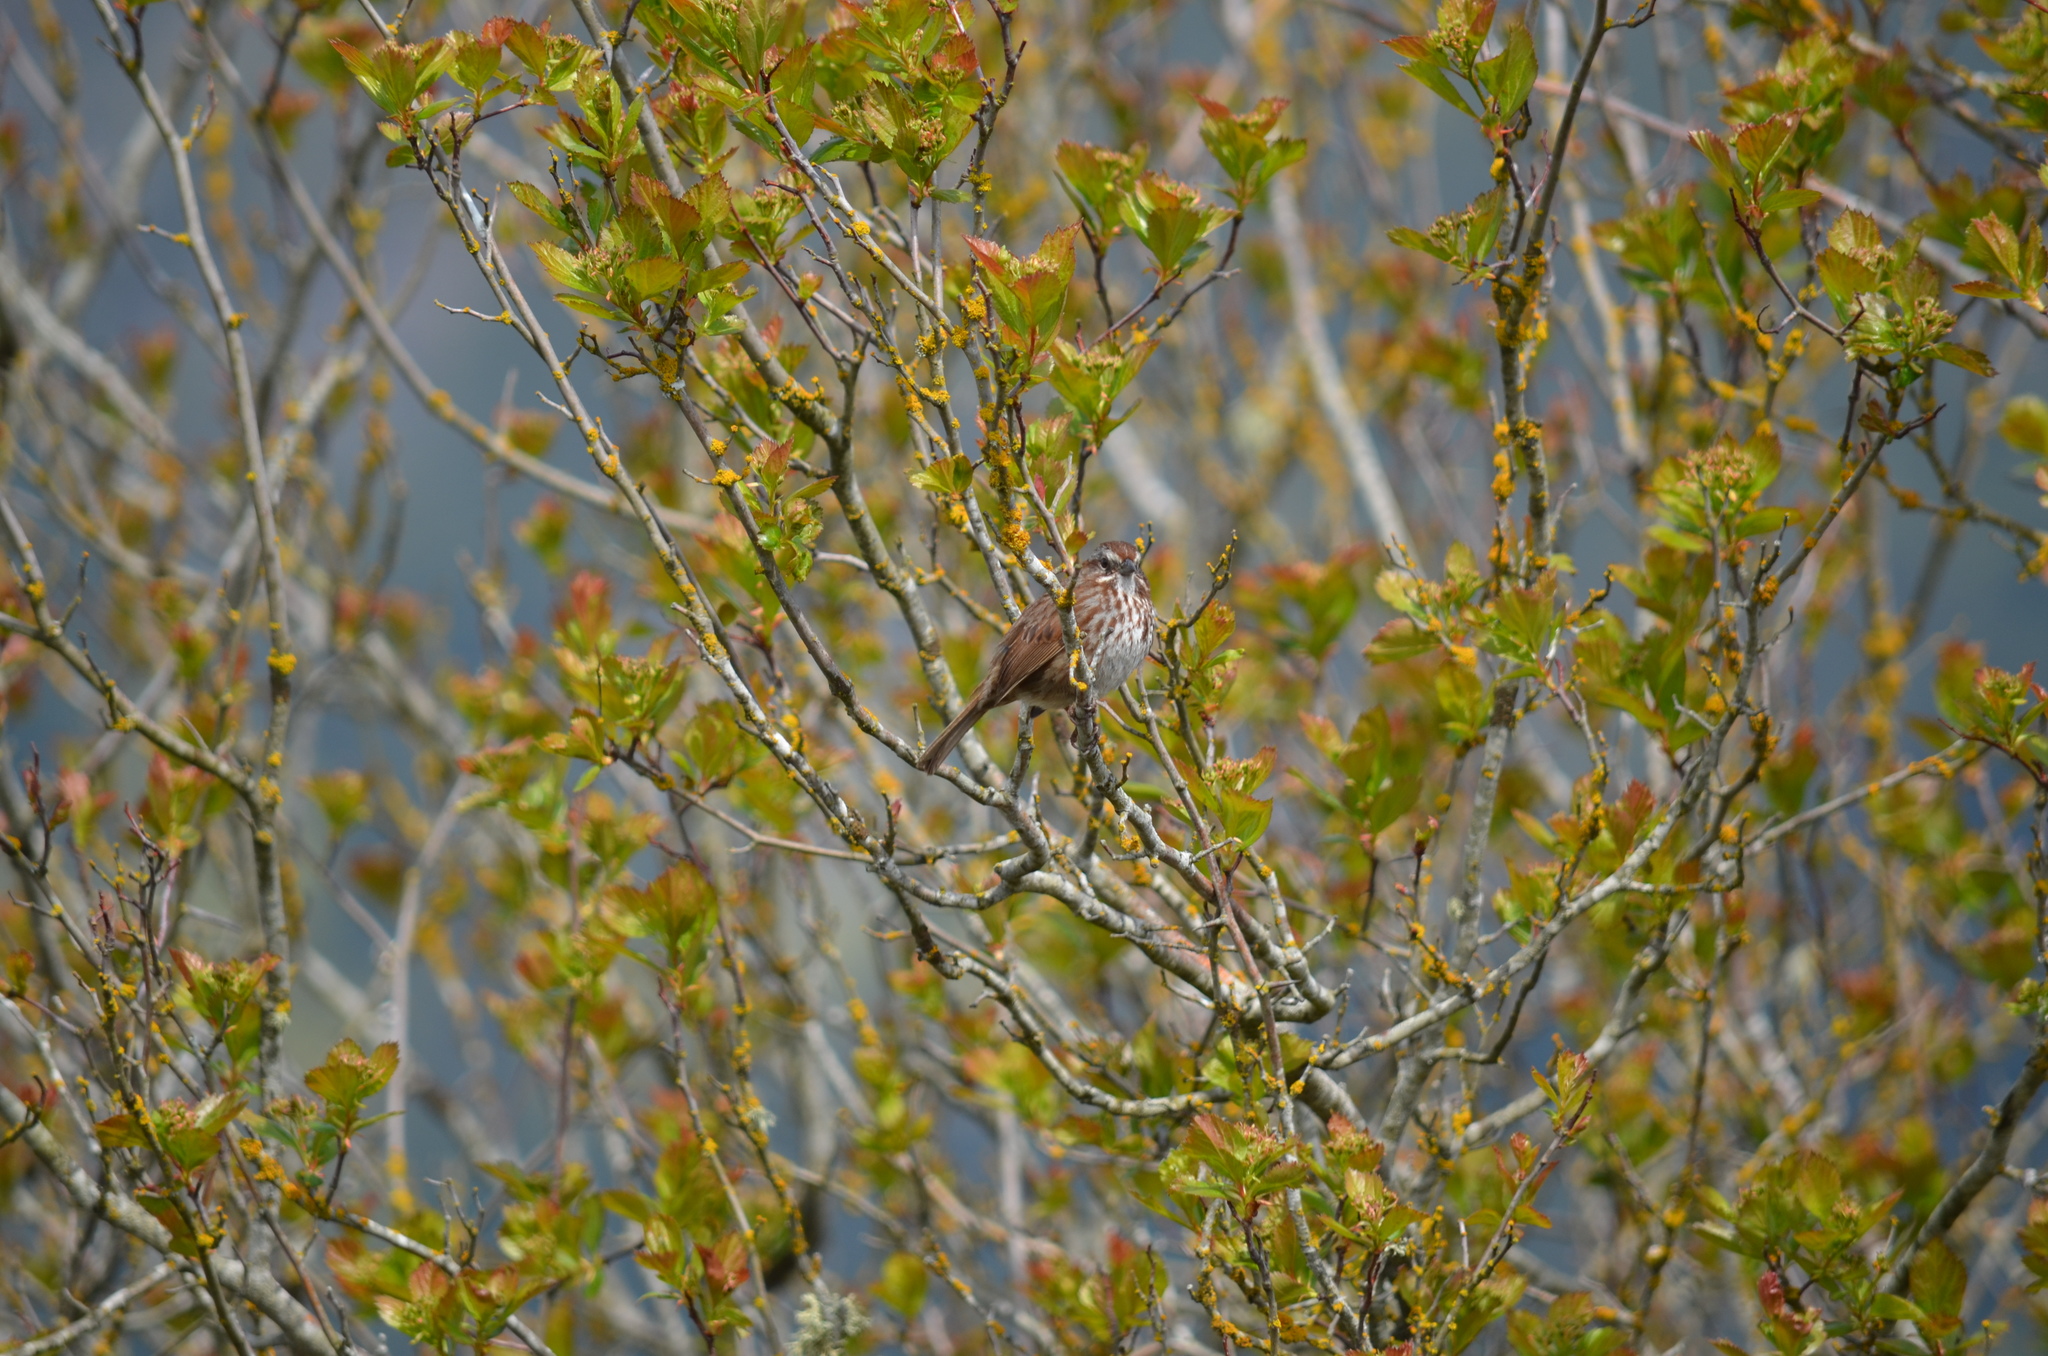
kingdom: Animalia
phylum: Chordata
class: Aves
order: Passeriformes
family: Passerellidae
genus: Melospiza
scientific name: Melospiza melodia
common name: Song sparrow
